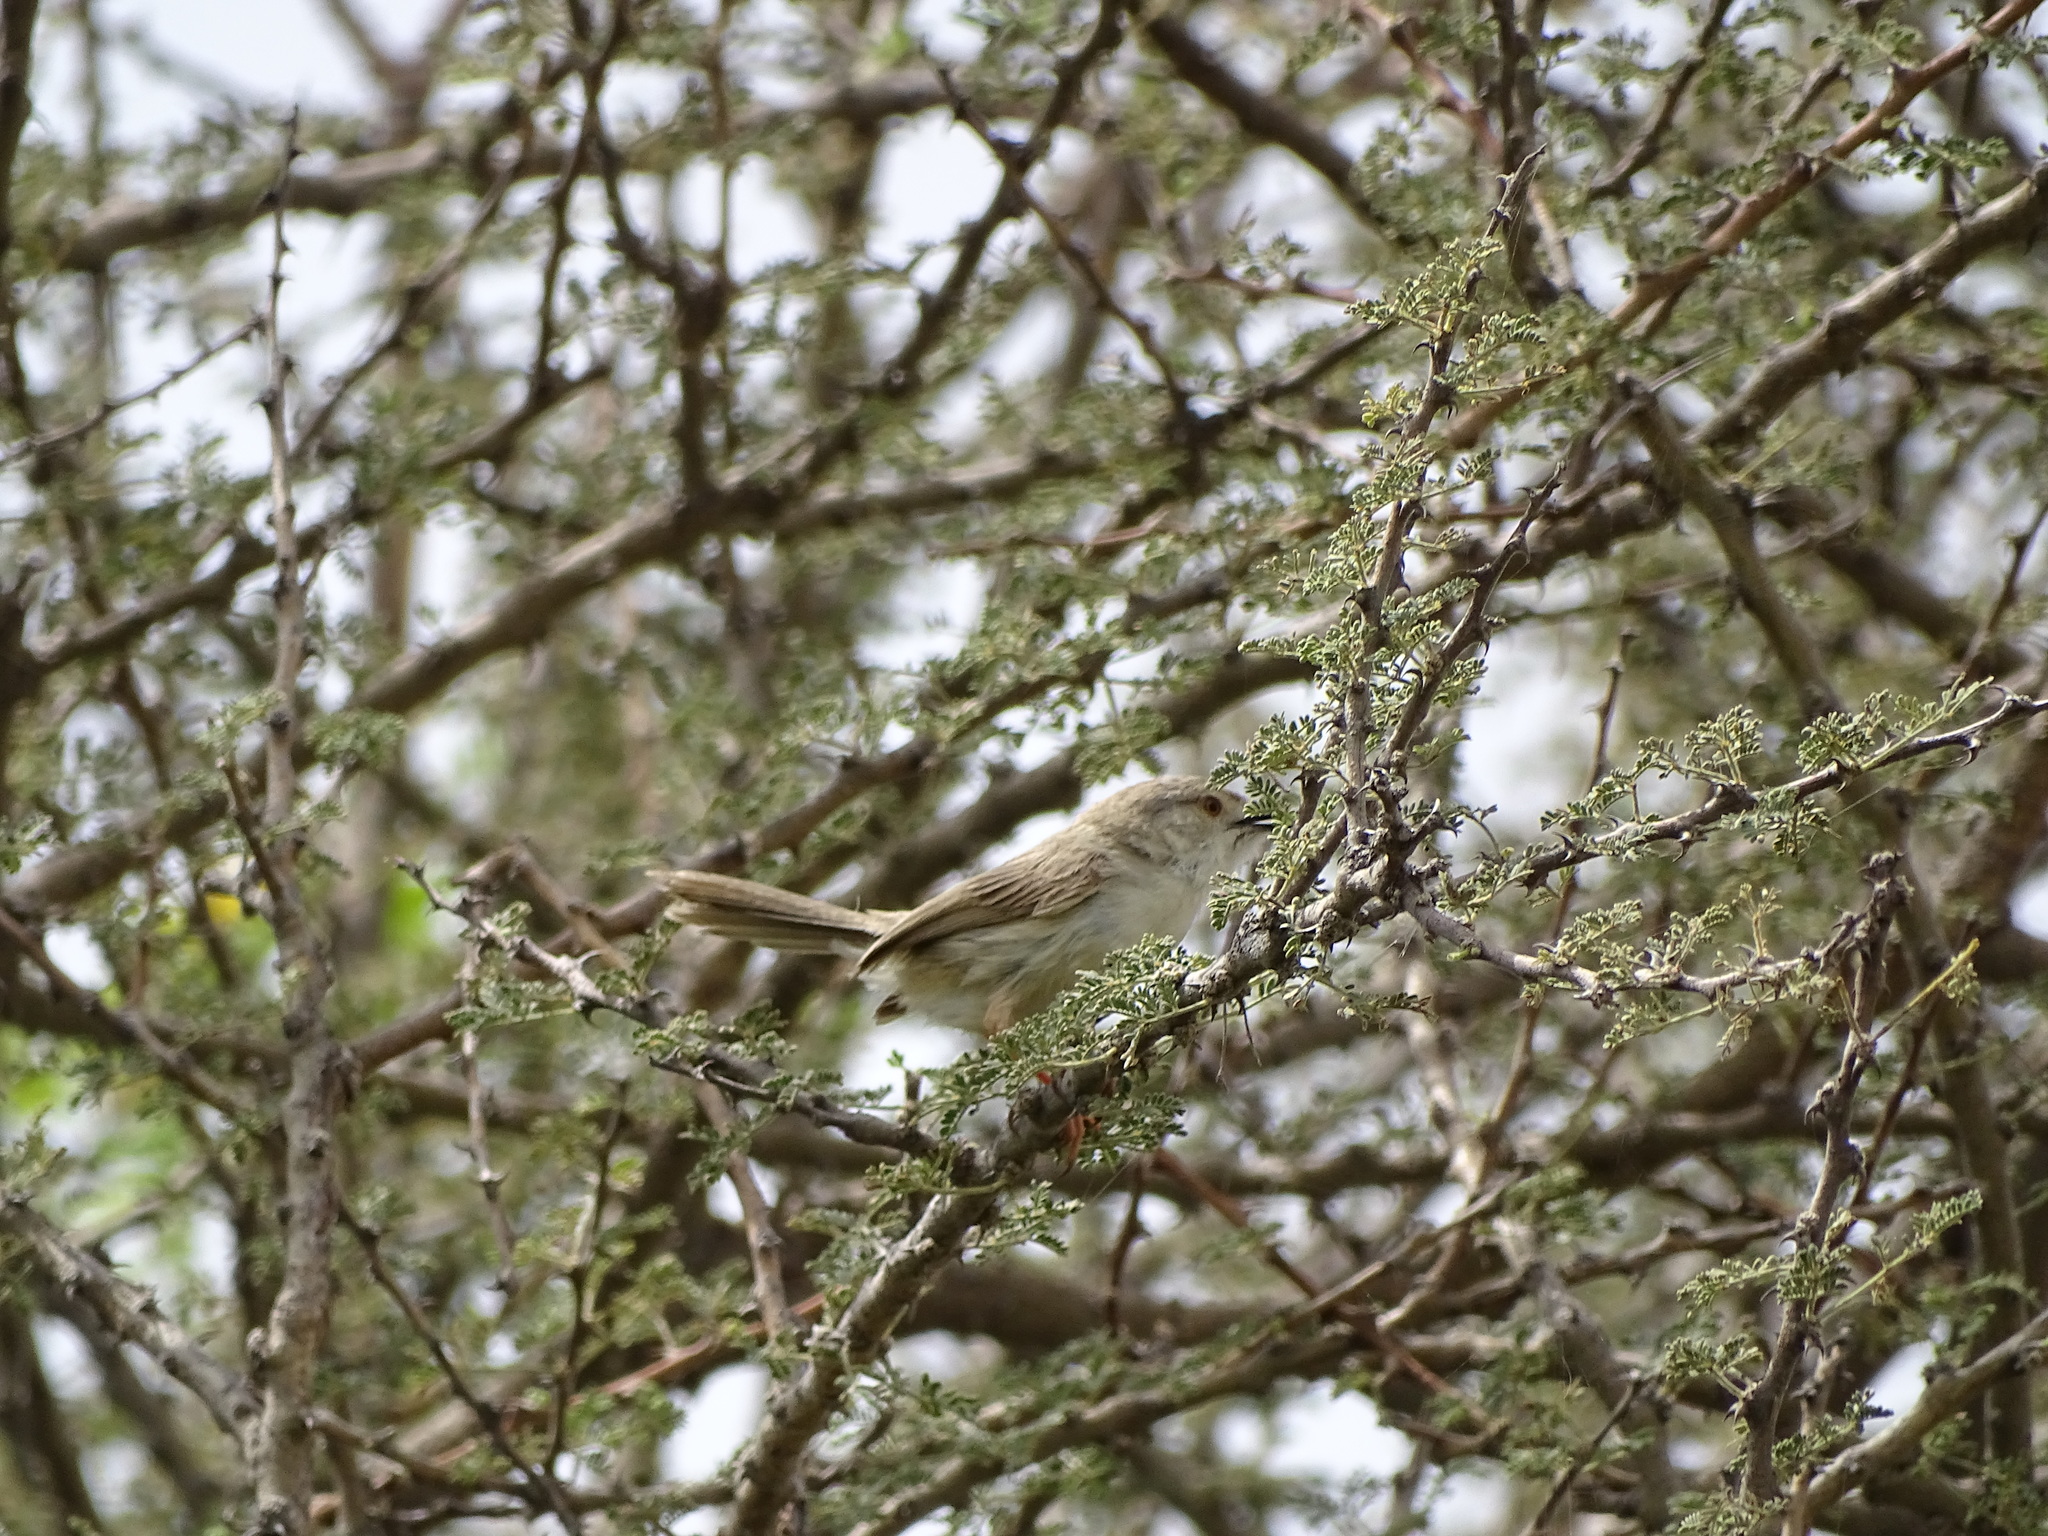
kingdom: Animalia
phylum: Chordata
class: Aves
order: Passeriformes
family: Cisticolidae
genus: Prinia
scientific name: Prinia lepida
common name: Delicate prinia
